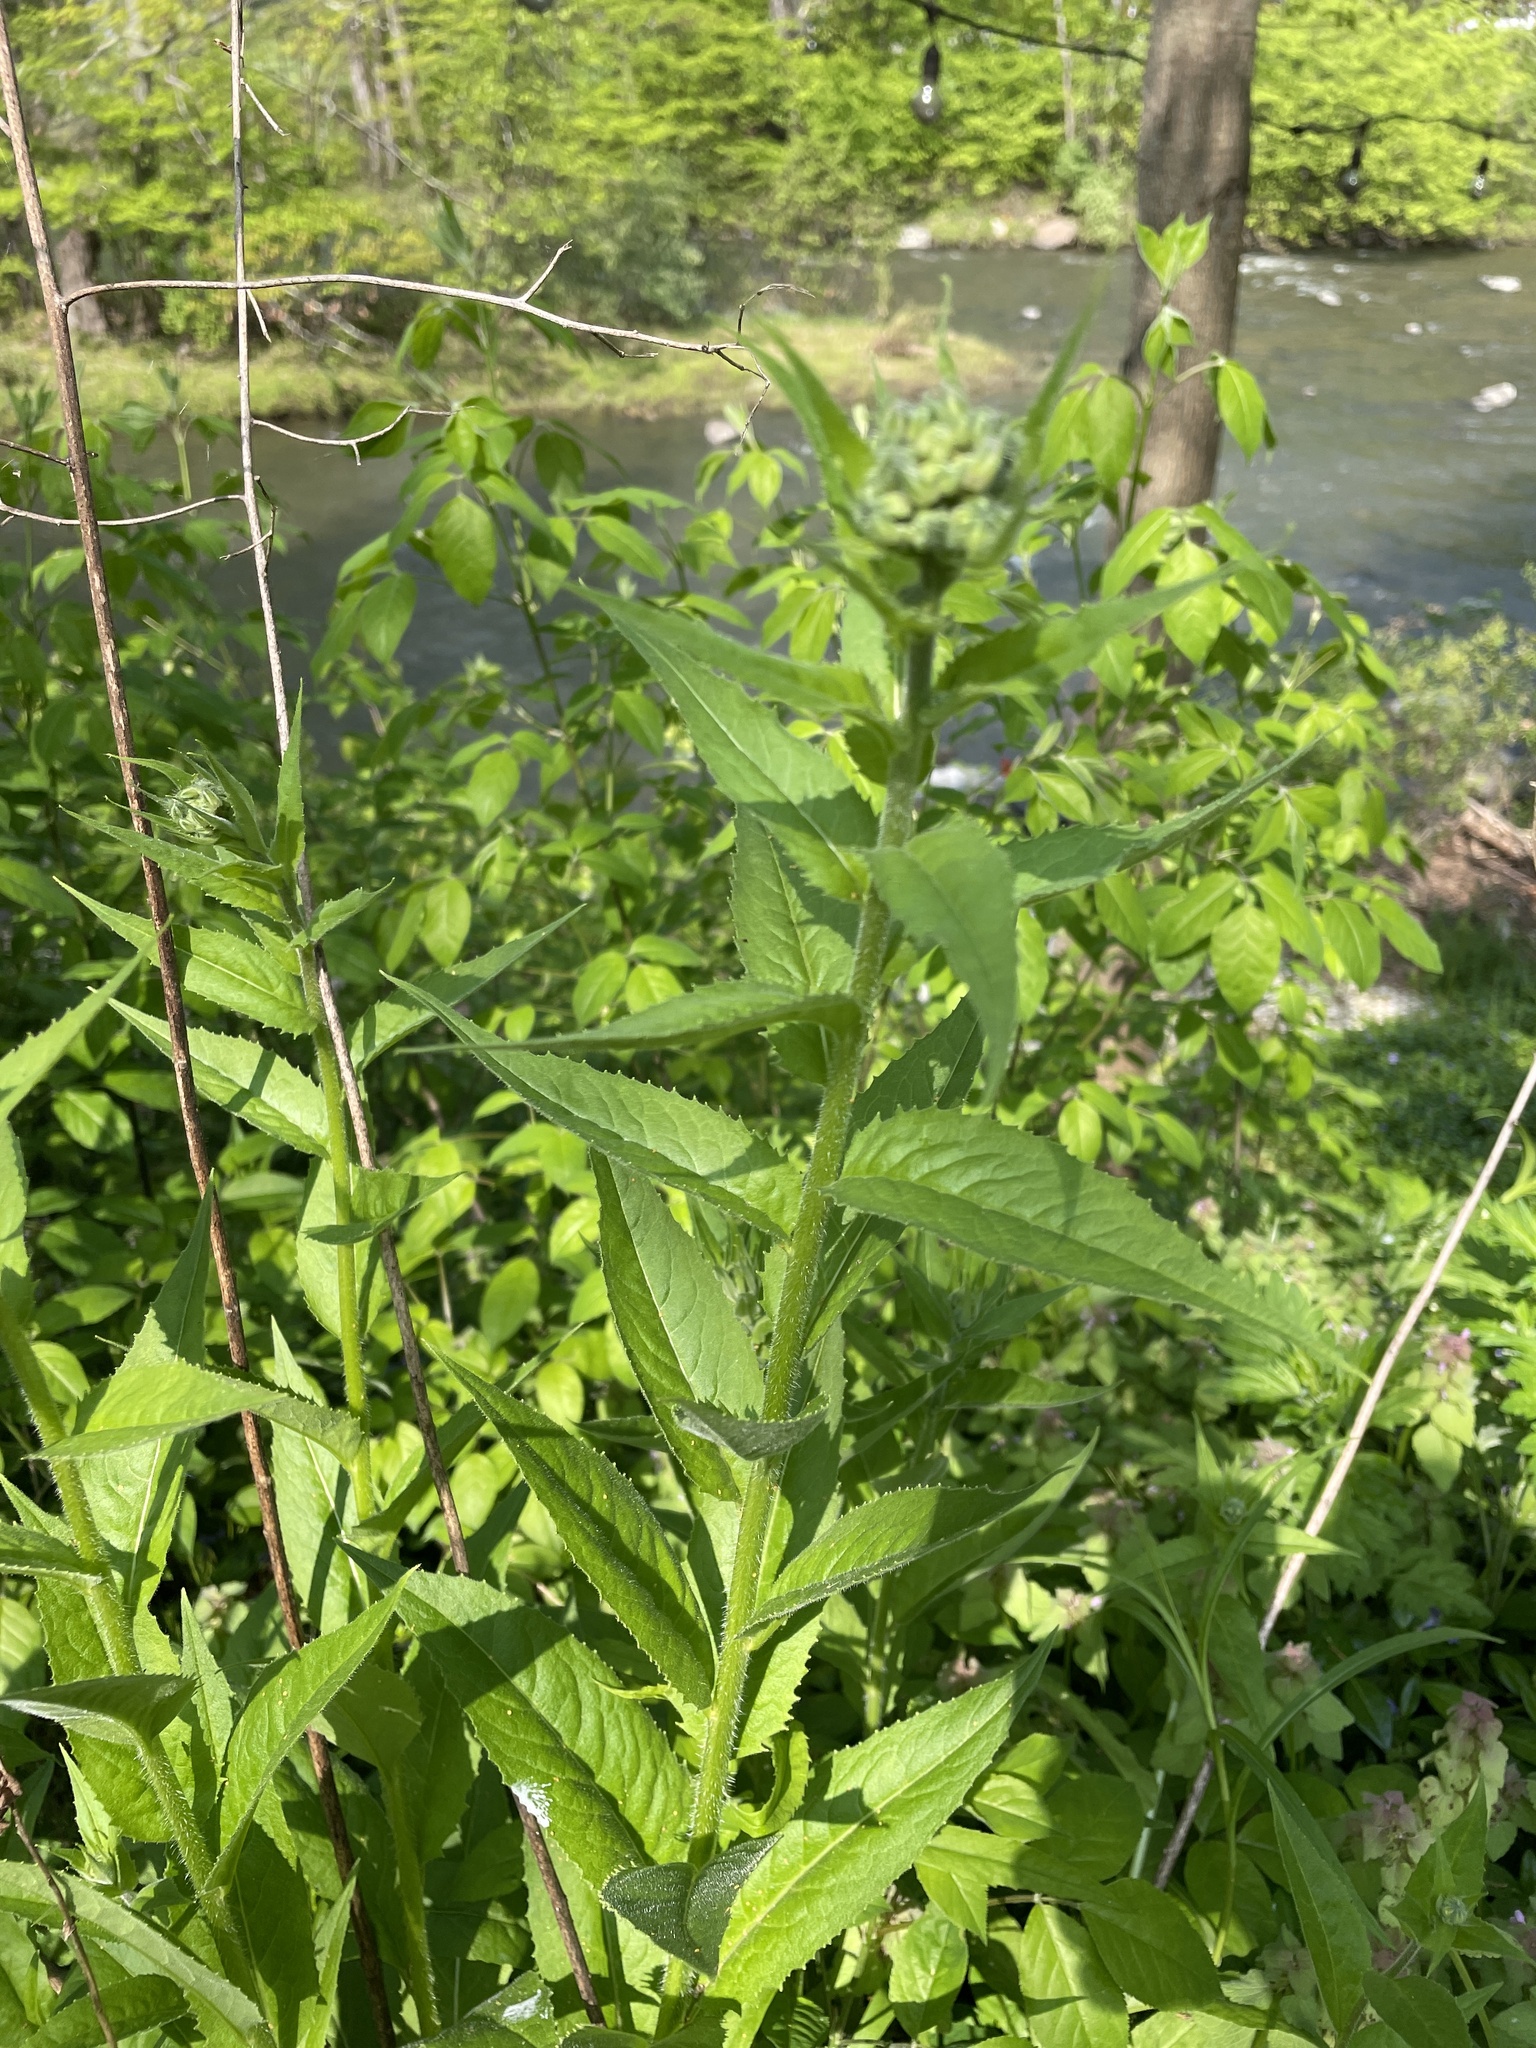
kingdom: Plantae
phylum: Tracheophyta
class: Magnoliopsida
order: Brassicales
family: Brassicaceae
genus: Hesperis
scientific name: Hesperis matronalis
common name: Dame's-violet
